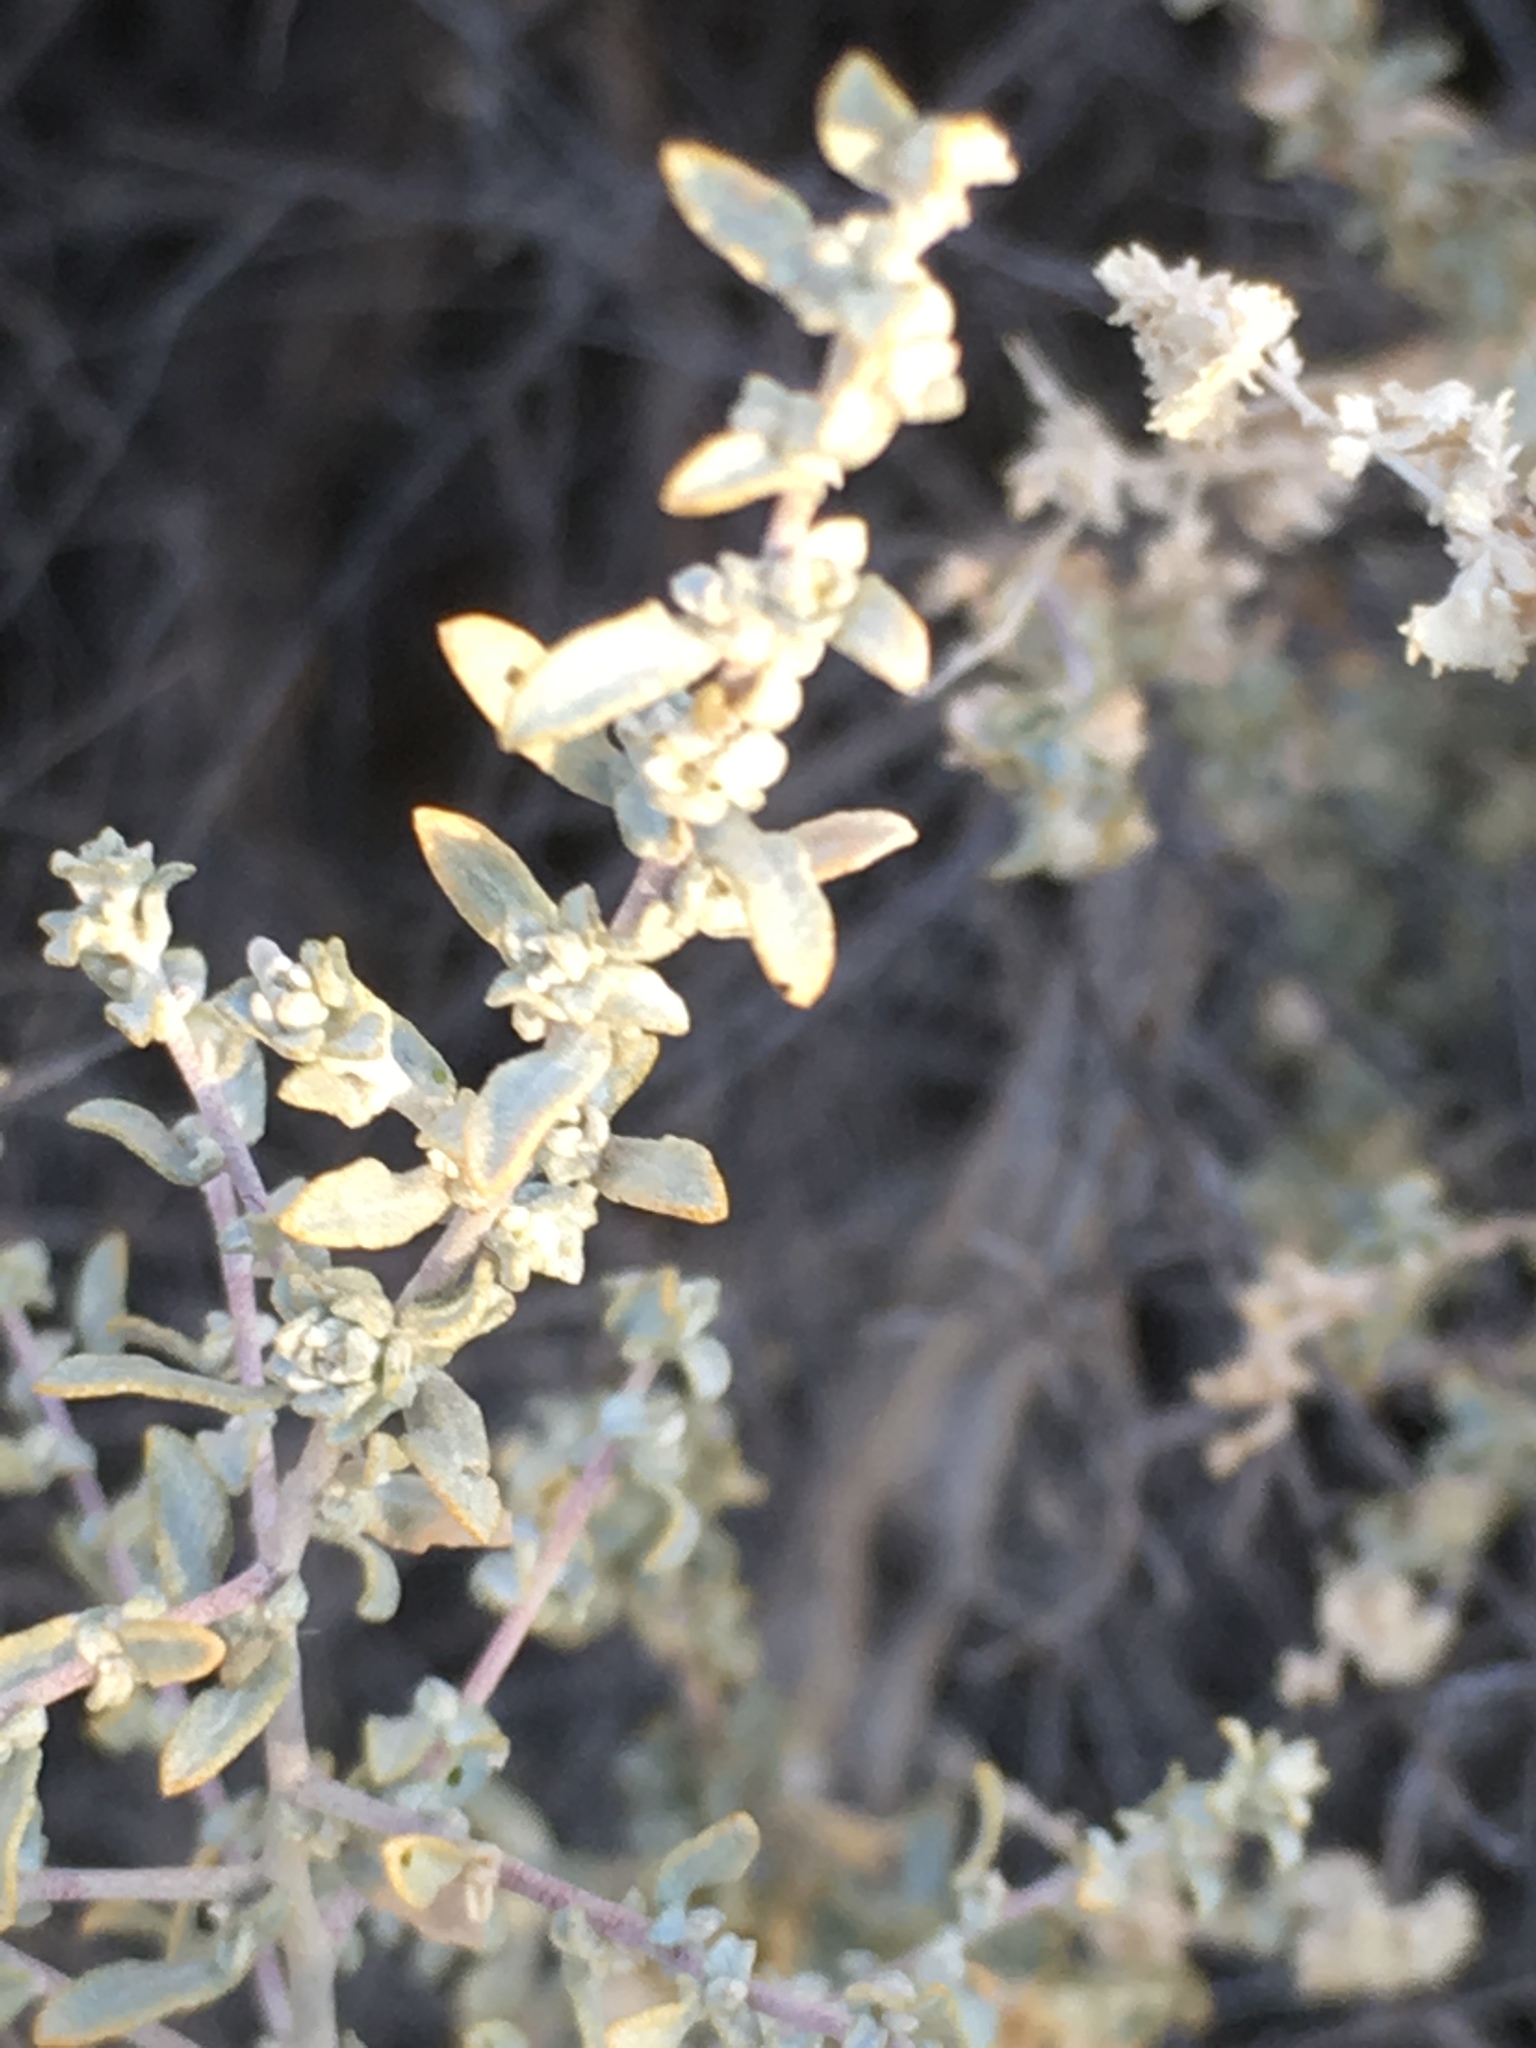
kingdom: Plantae
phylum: Tracheophyta
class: Magnoliopsida
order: Caryophyllales
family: Amaranthaceae
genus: Atriplex
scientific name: Atriplex polycarpa
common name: Desert saltbush
